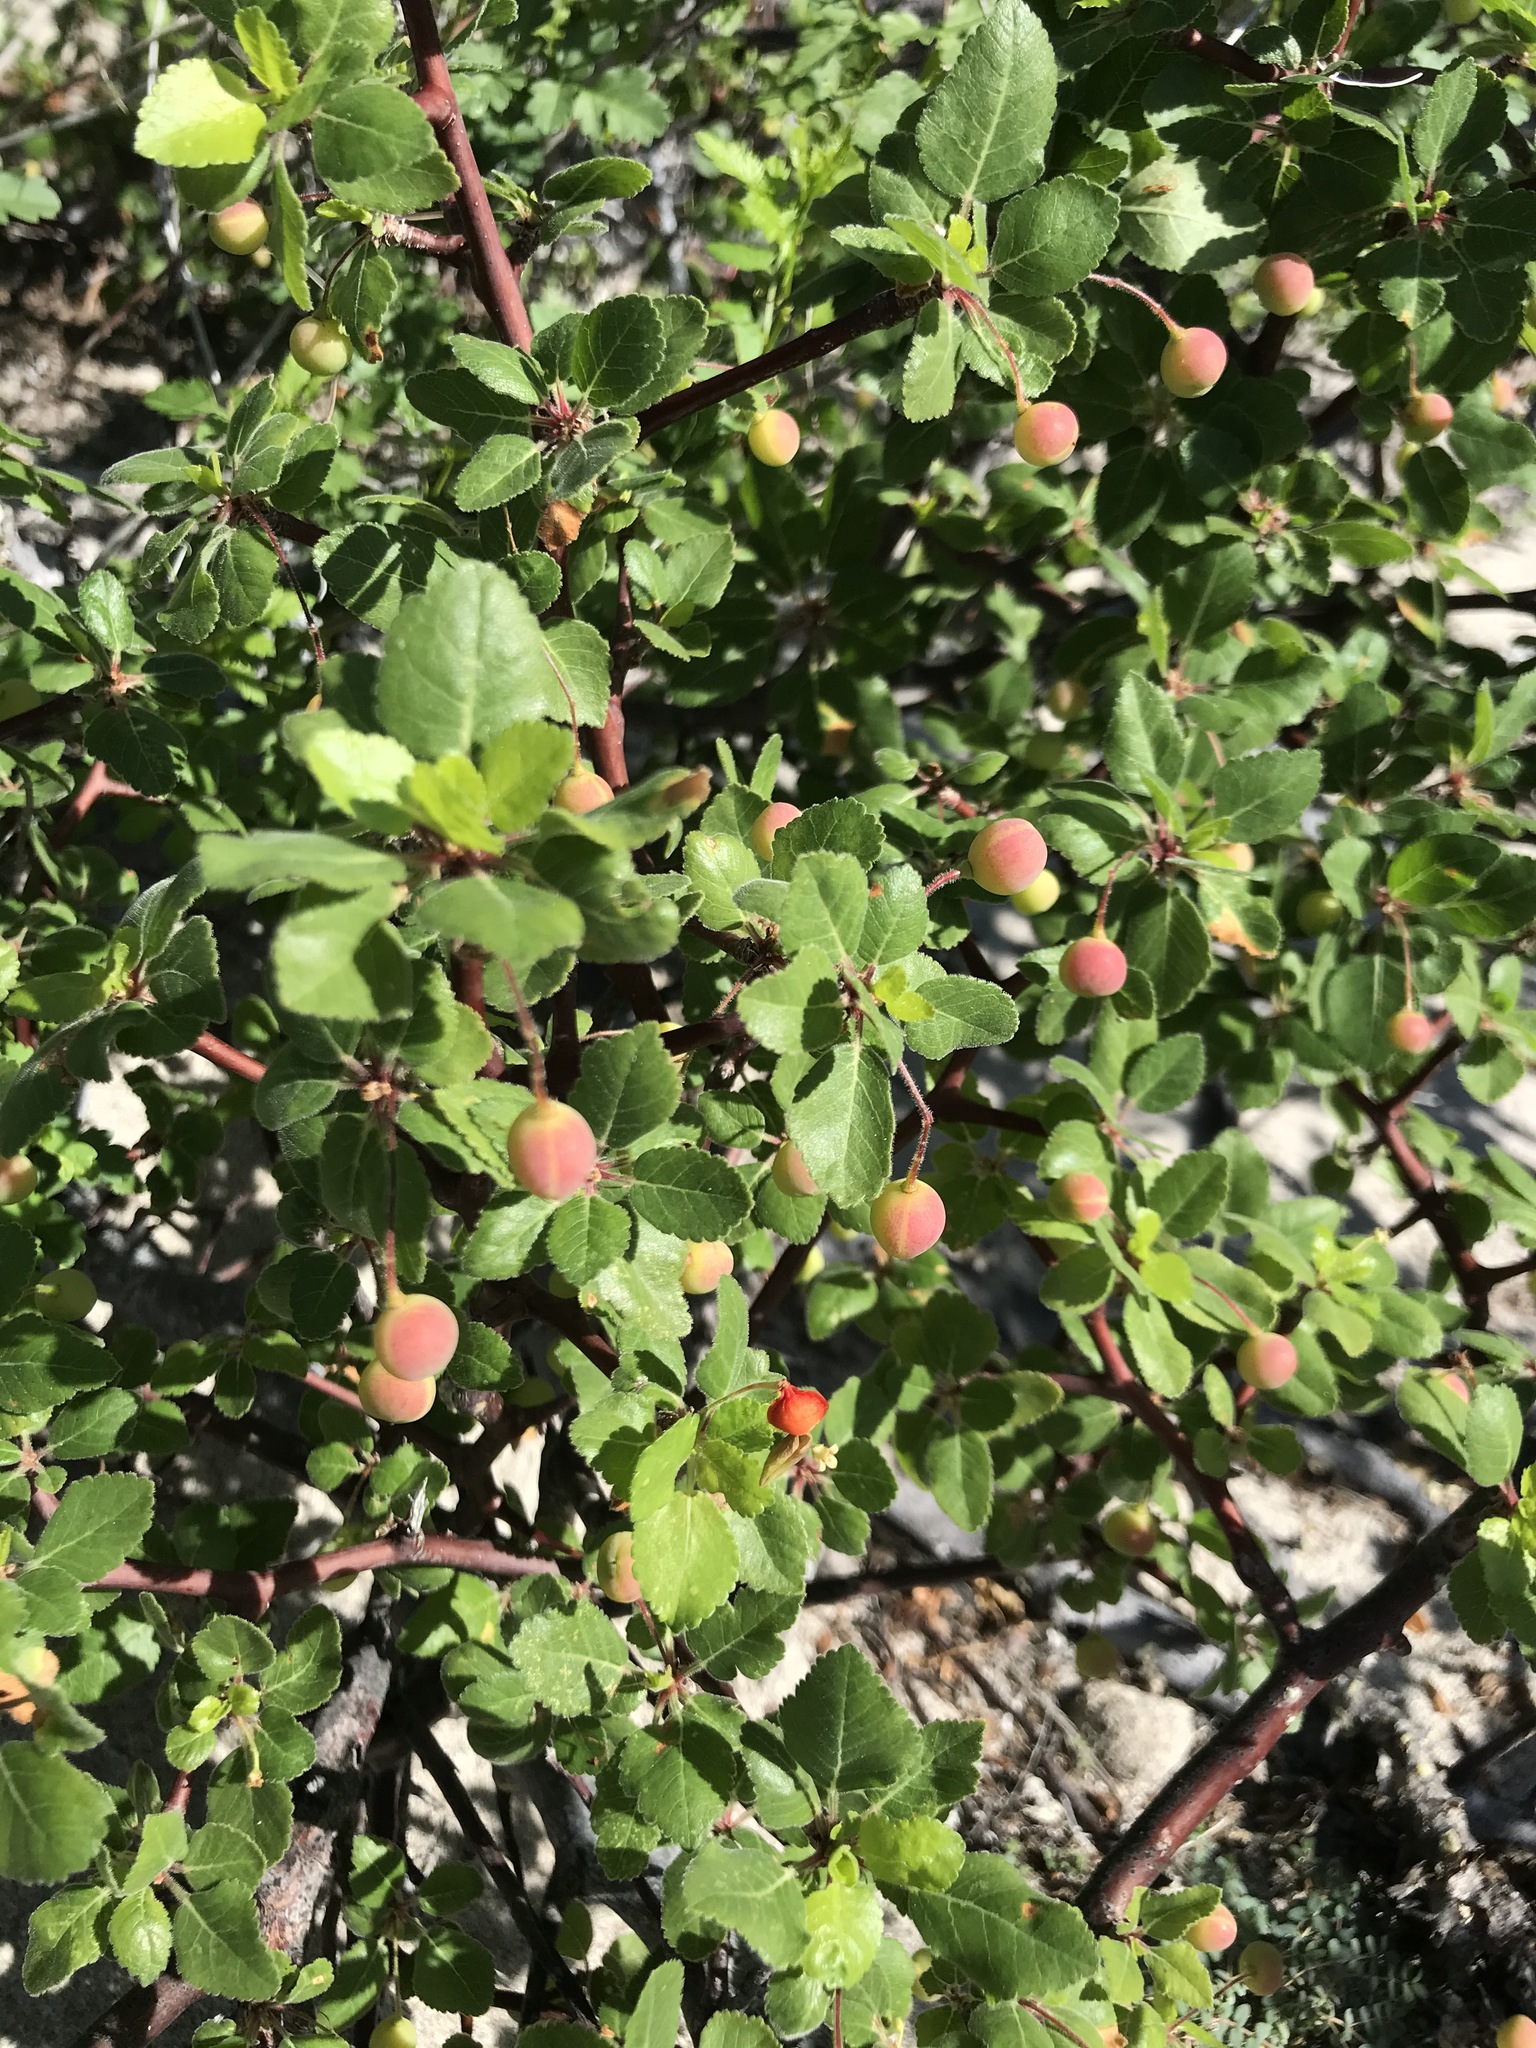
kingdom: Plantae
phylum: Tracheophyta
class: Magnoliopsida
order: Sapindales
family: Burseraceae
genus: Bursera
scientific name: Bursera hindsiana
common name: Red elephant tree
